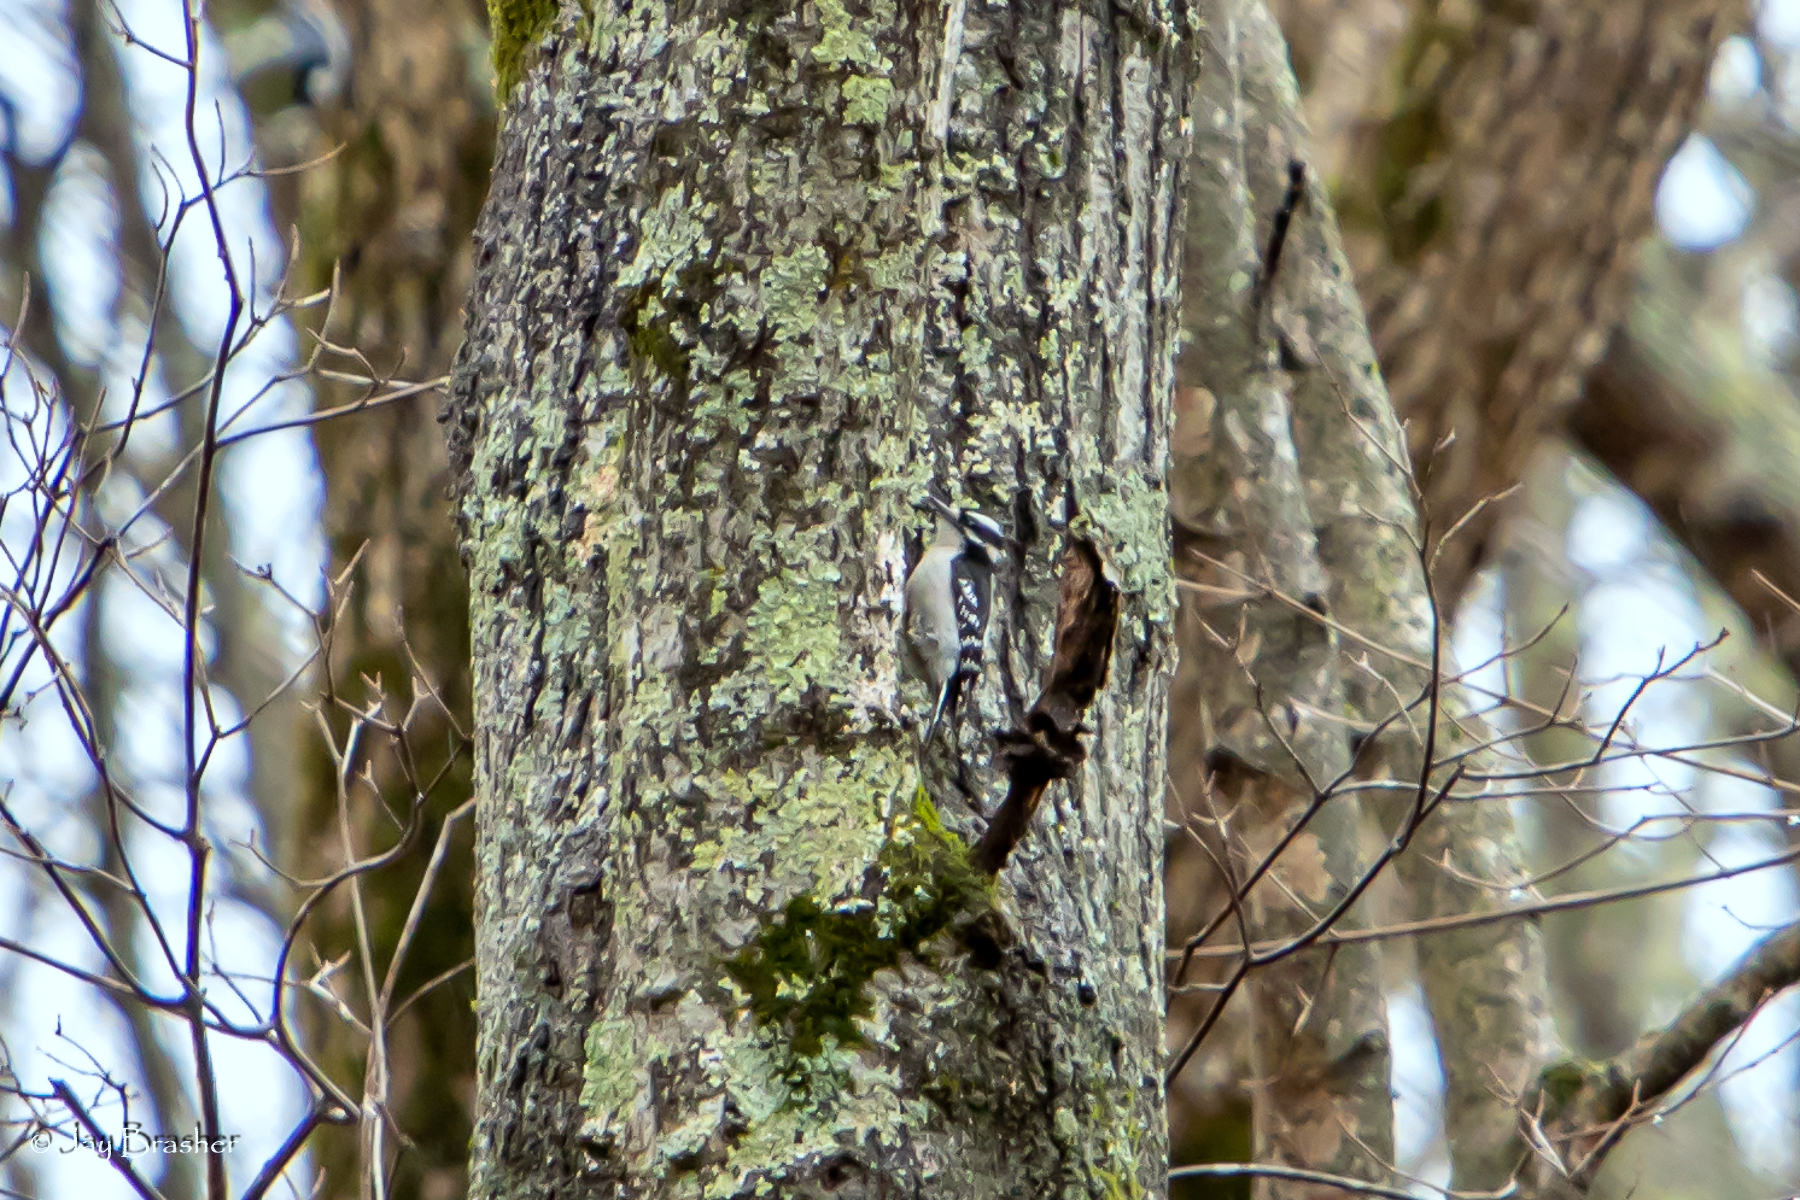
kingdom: Animalia
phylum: Chordata
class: Aves
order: Piciformes
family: Picidae
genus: Dryobates
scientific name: Dryobates pubescens
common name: Downy woodpecker
